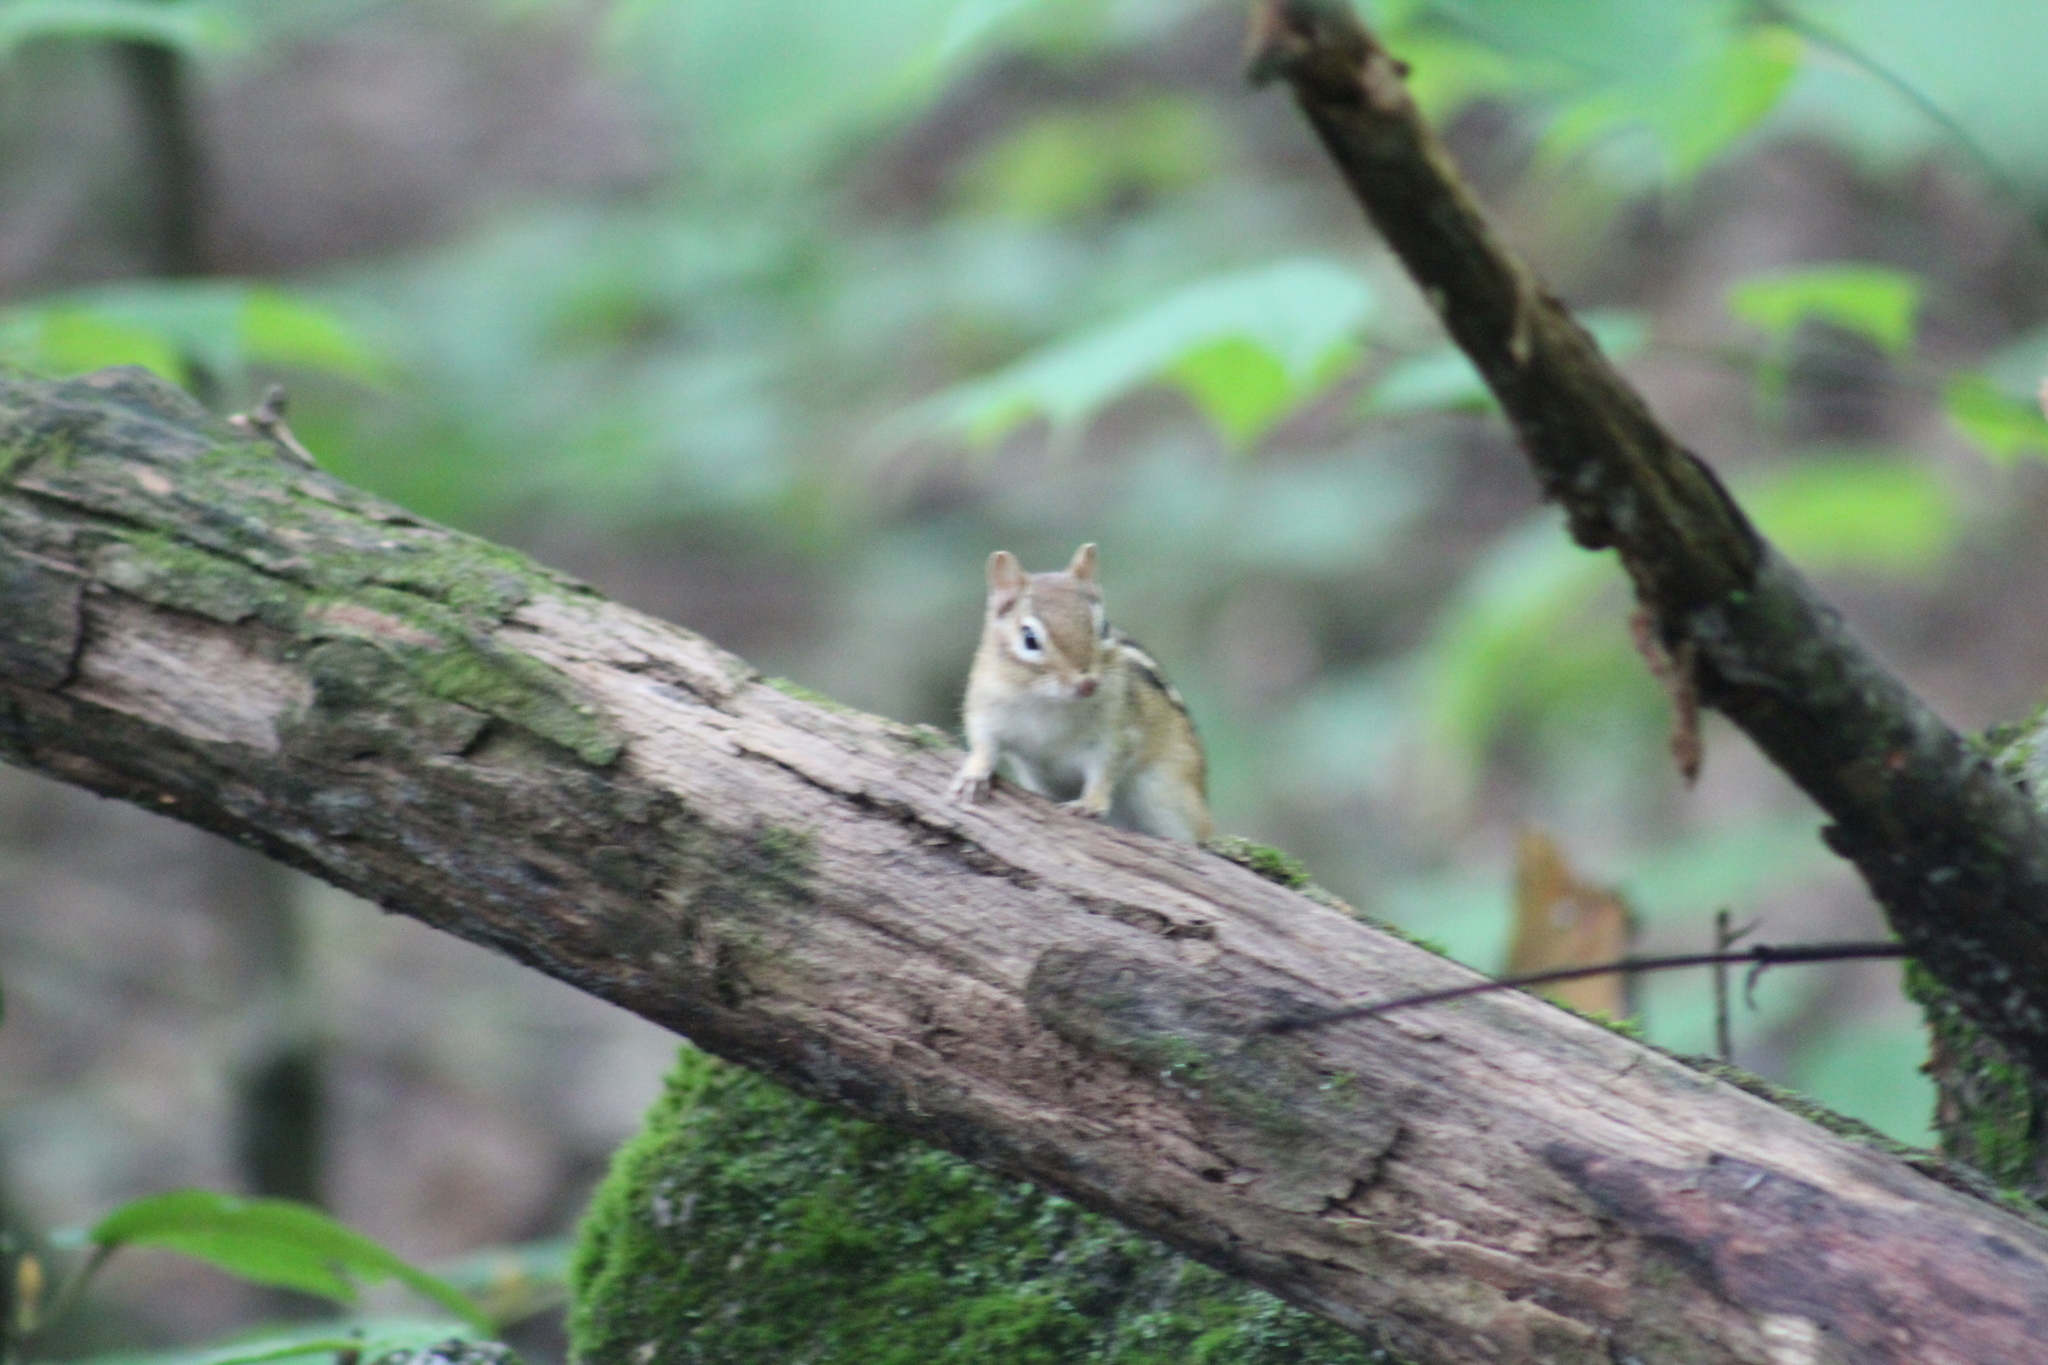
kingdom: Animalia
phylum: Chordata
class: Mammalia
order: Rodentia
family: Sciuridae
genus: Tamias
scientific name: Tamias striatus
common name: Eastern chipmunk
